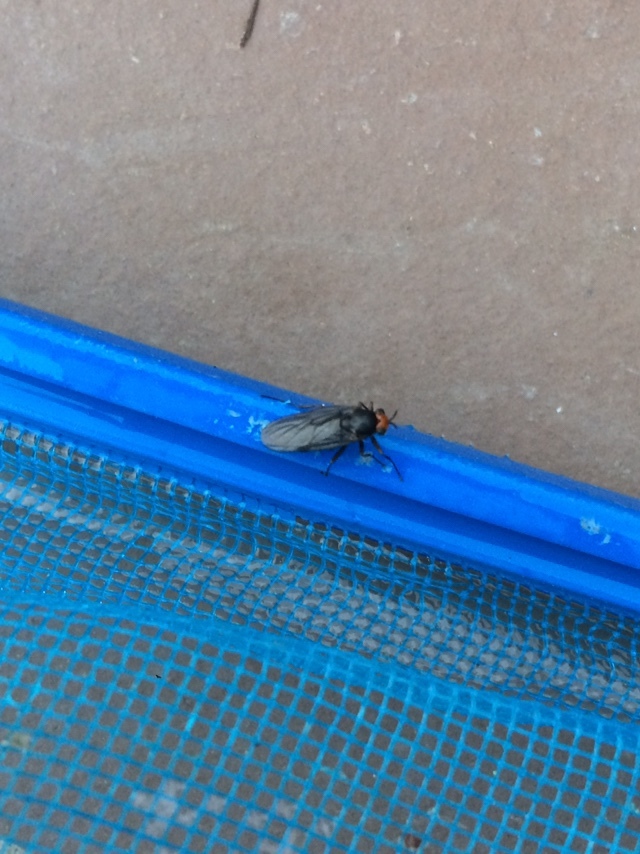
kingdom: Animalia
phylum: Arthropoda
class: Insecta
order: Diptera
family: Stratiomyidae
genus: Inopus
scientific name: Inopus rubriceps
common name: Soldier fly
